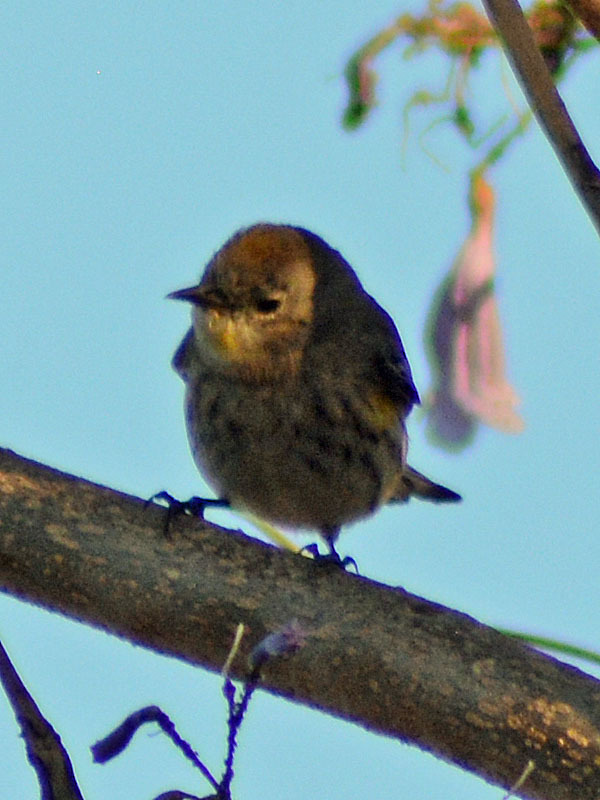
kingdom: Animalia
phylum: Chordata
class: Aves
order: Passeriformes
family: Parulidae
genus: Setophaga
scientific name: Setophaga coronata
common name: Myrtle warbler
